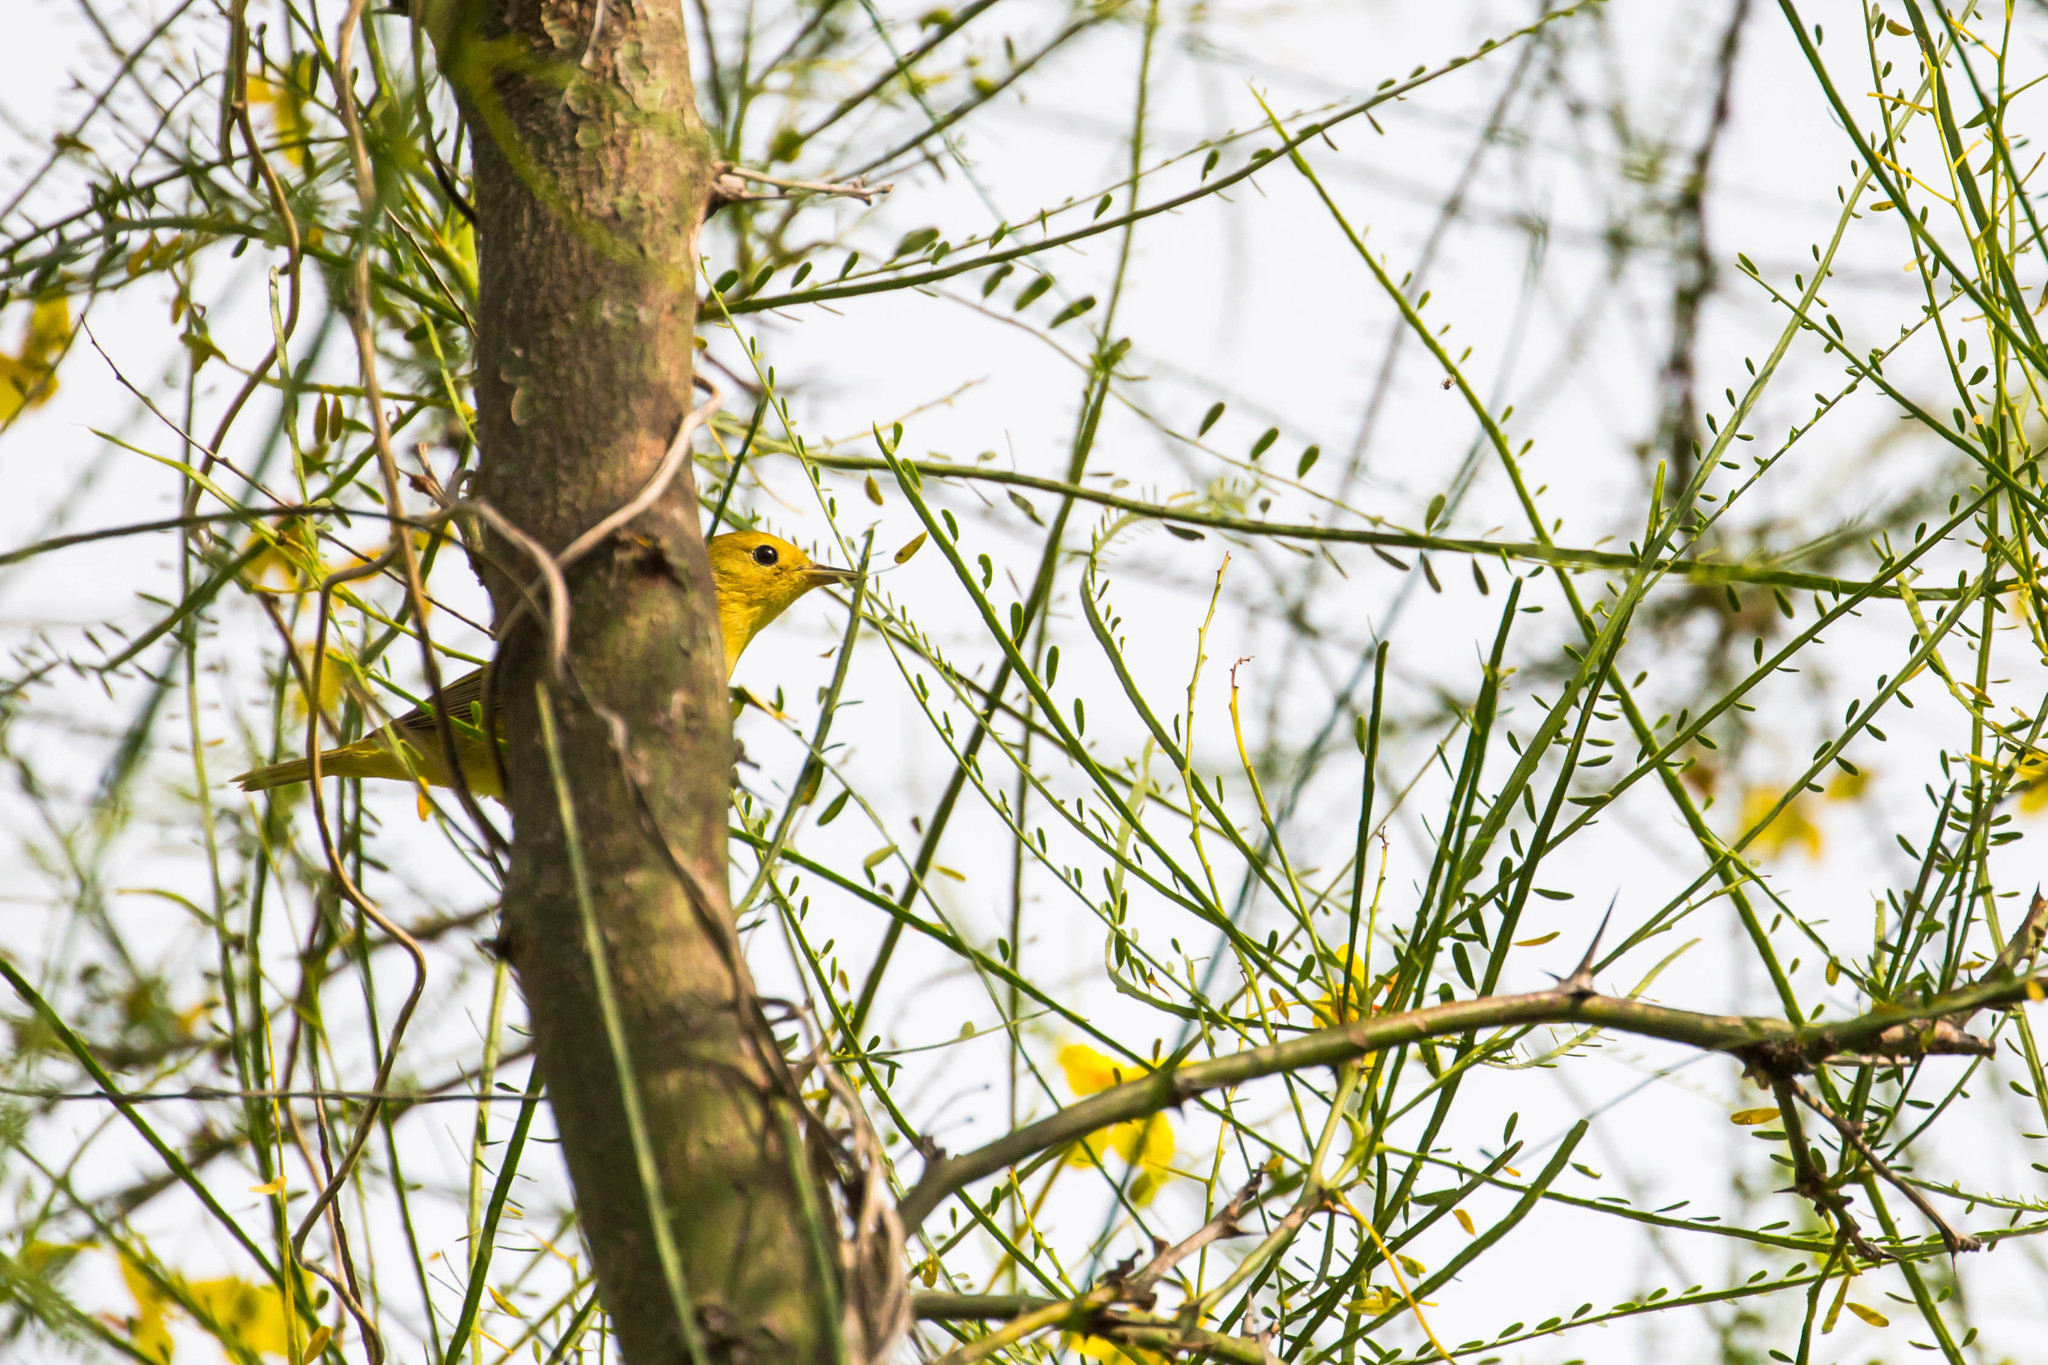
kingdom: Animalia
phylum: Chordata
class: Aves
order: Passeriformes
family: Parulidae
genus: Setophaga
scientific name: Setophaga petechia
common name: Yellow warbler
